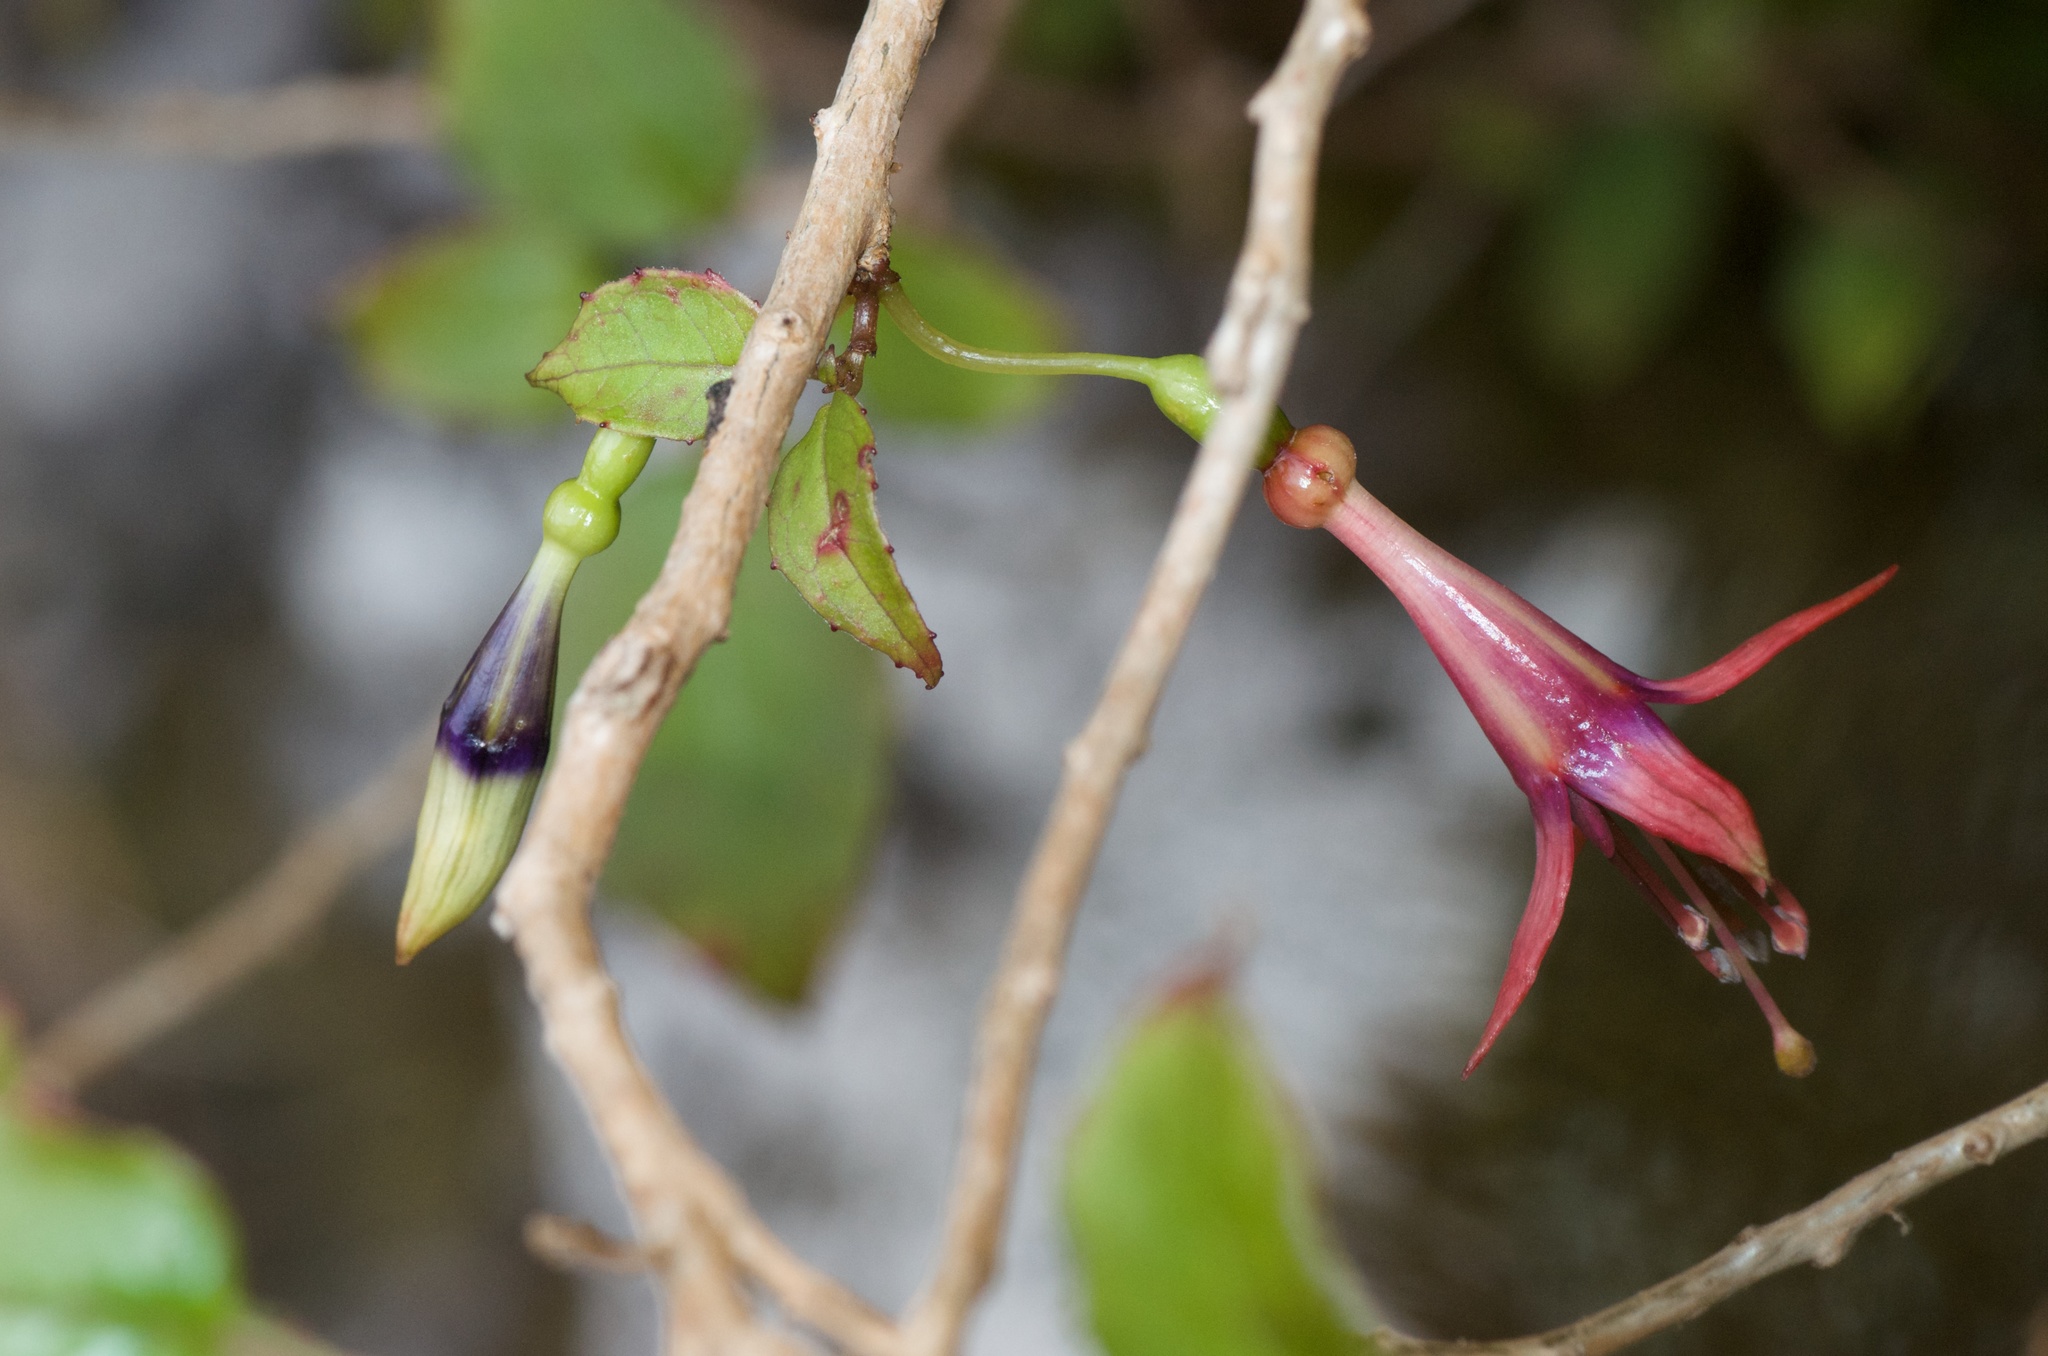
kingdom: Plantae
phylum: Tracheophyta
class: Magnoliopsida
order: Myrtales
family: Onagraceae
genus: Fuchsia
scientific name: Fuchsia excorticata
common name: Tree fuchsia
